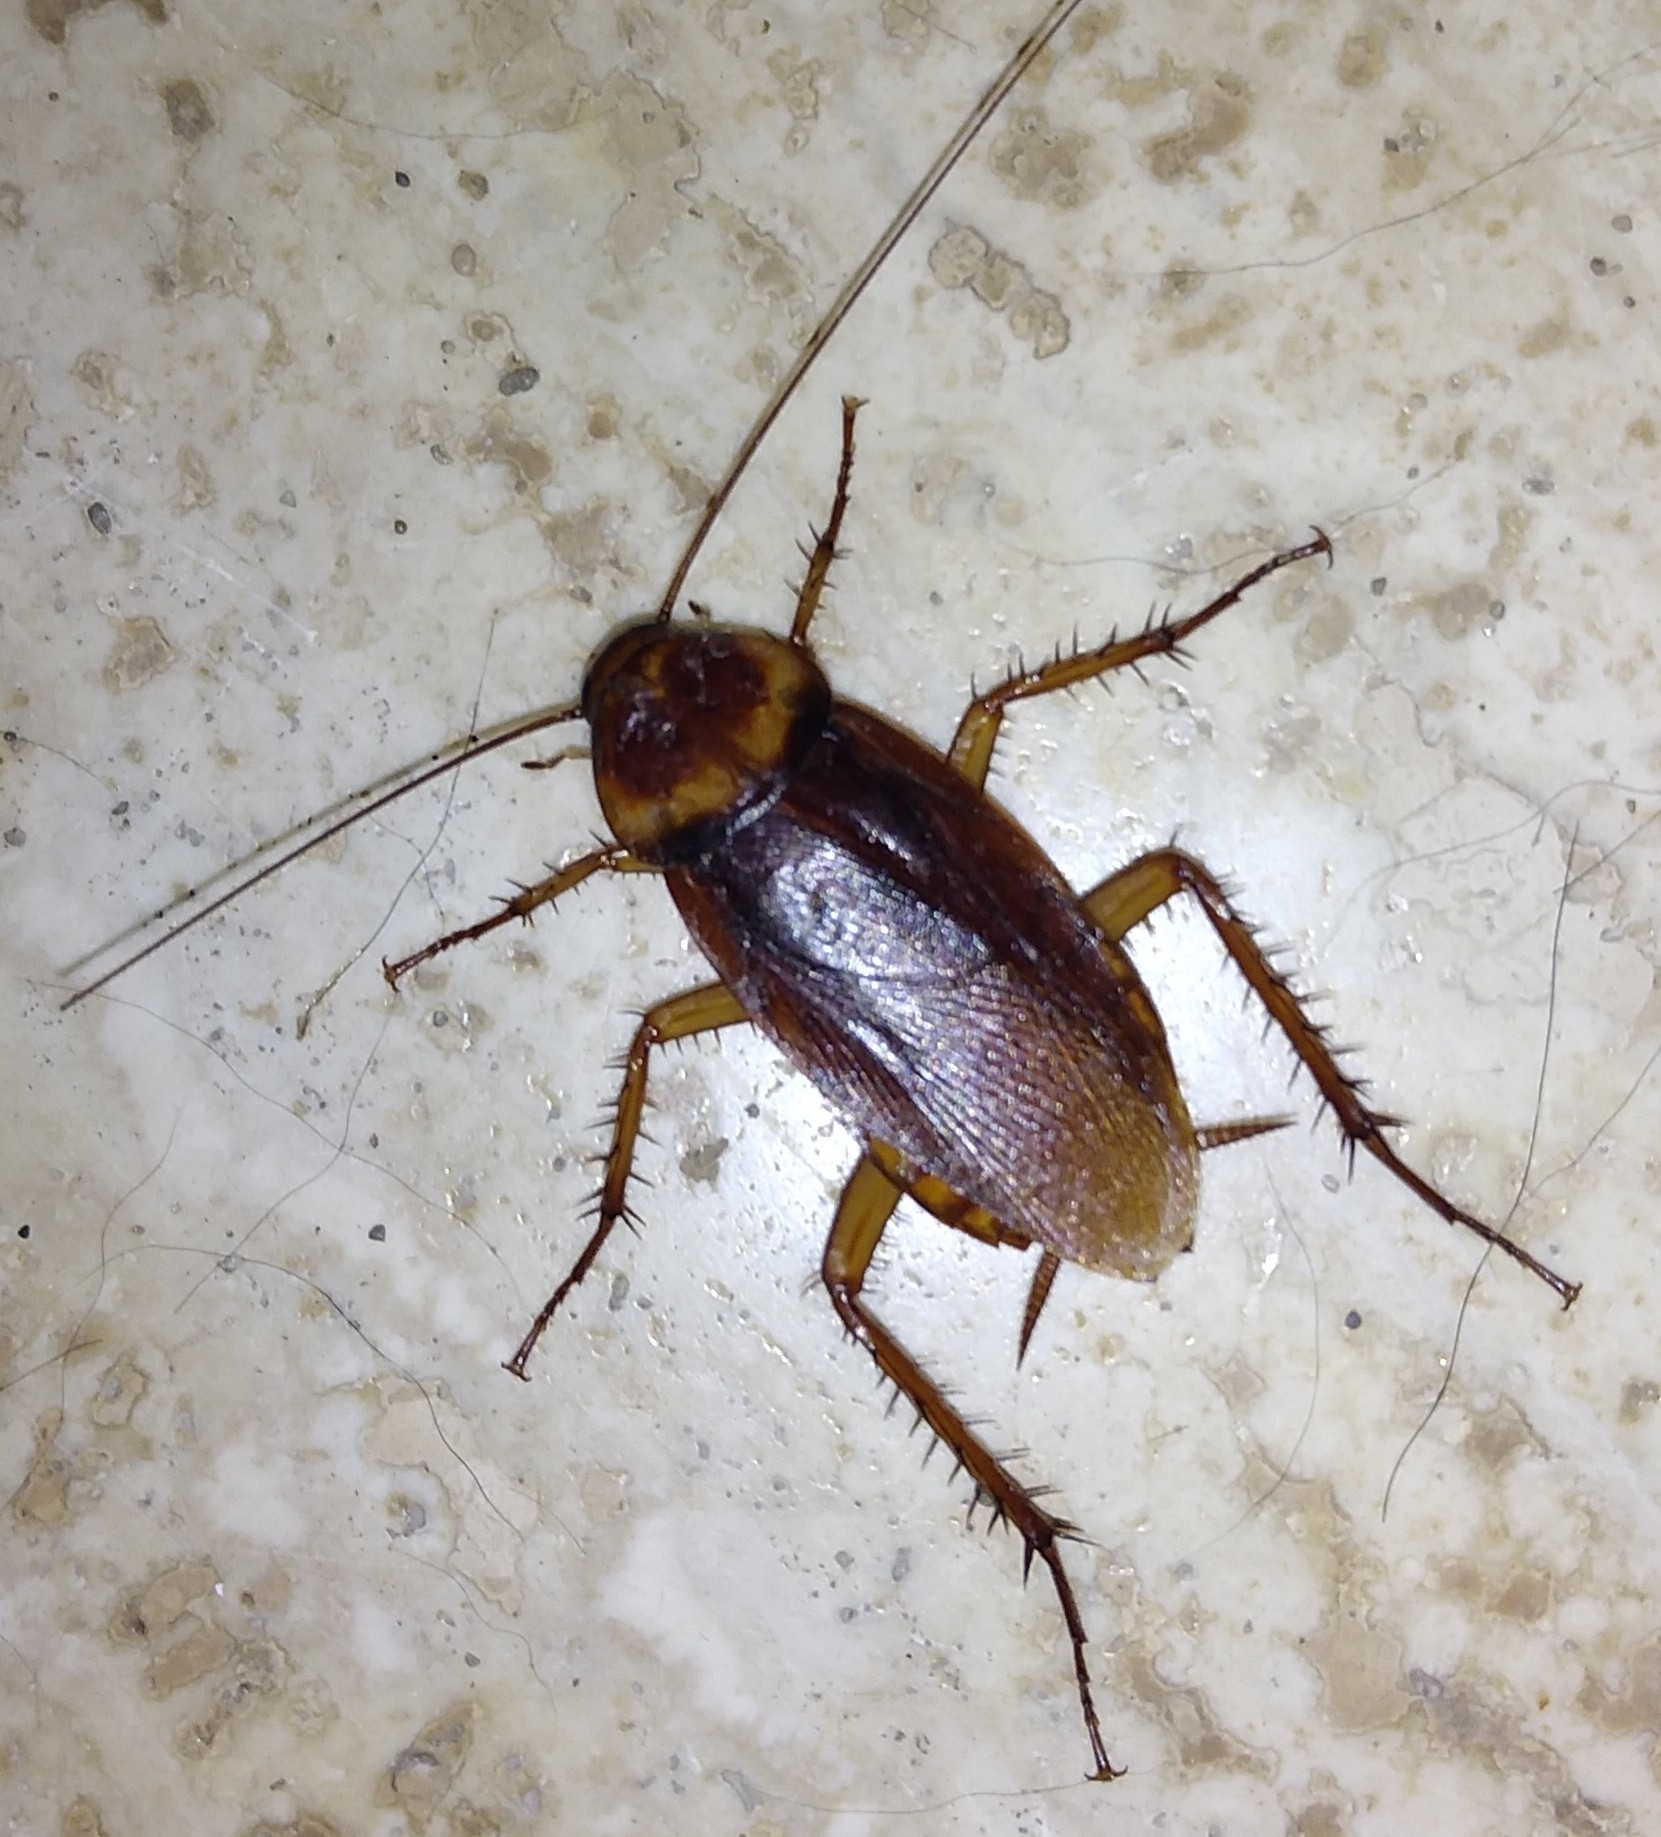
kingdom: Animalia
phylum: Arthropoda
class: Insecta
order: Blattodea
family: Blattidae
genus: Periplaneta
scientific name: Periplaneta americana
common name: American cockroach
